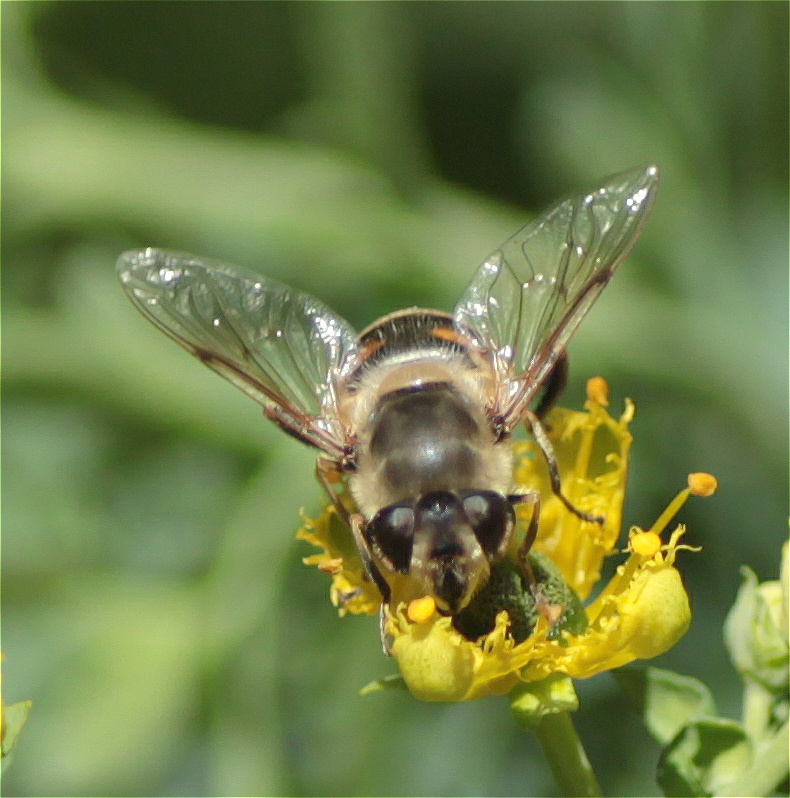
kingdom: Animalia
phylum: Arthropoda
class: Insecta
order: Diptera
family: Syrphidae
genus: Eristalis
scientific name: Eristalis tenax
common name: Drone fly
